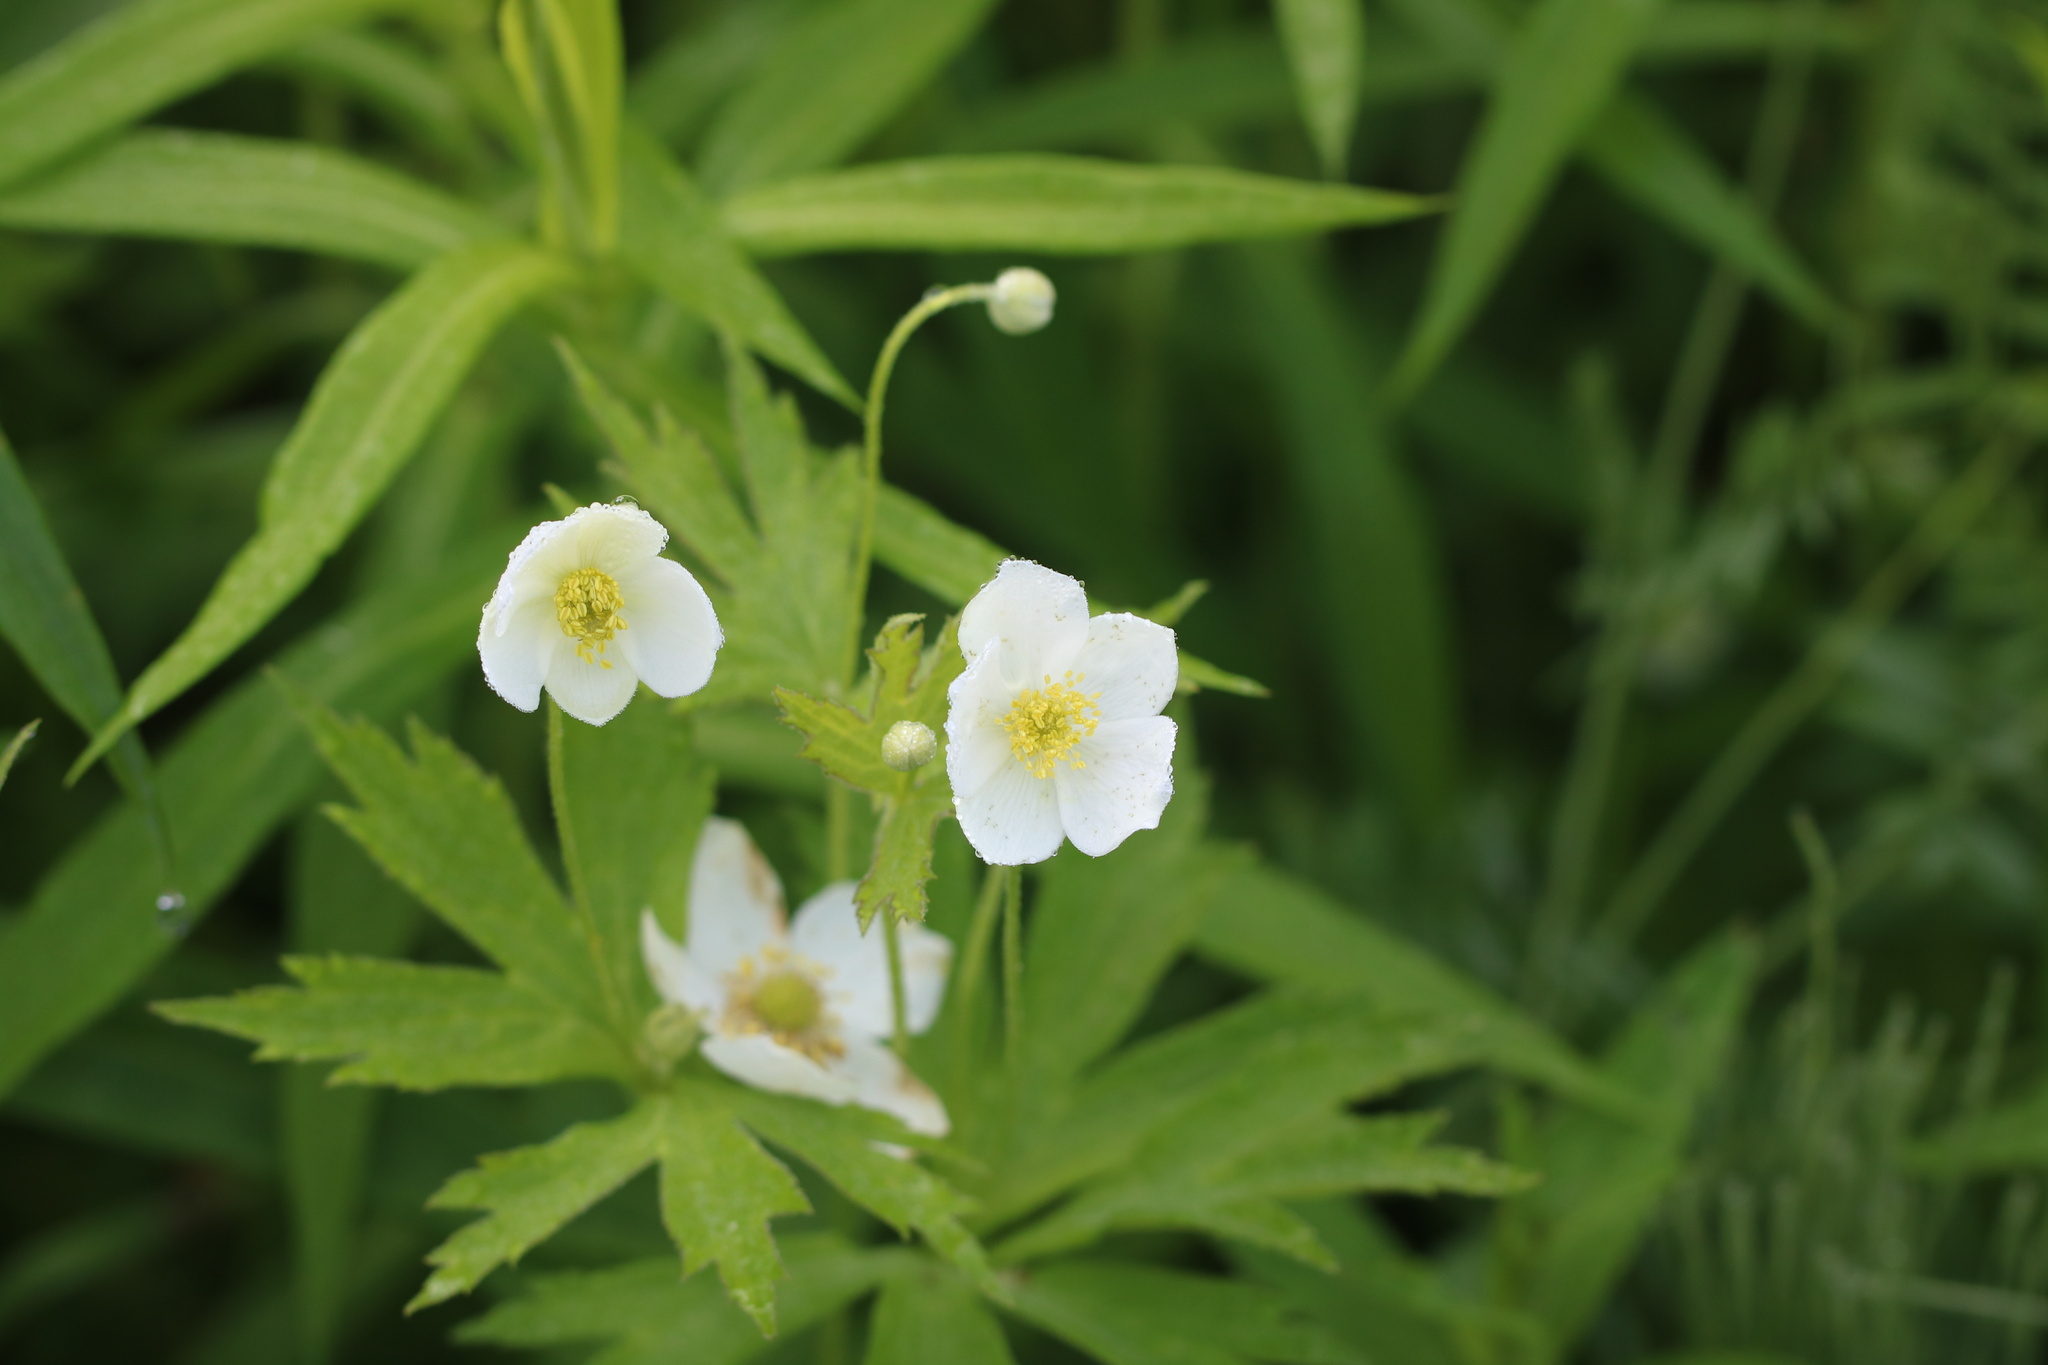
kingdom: Plantae
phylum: Tracheophyta
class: Magnoliopsida
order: Ranunculales
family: Ranunculaceae
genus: Anemonastrum
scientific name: Anemonastrum canadense
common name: Canada anemone
